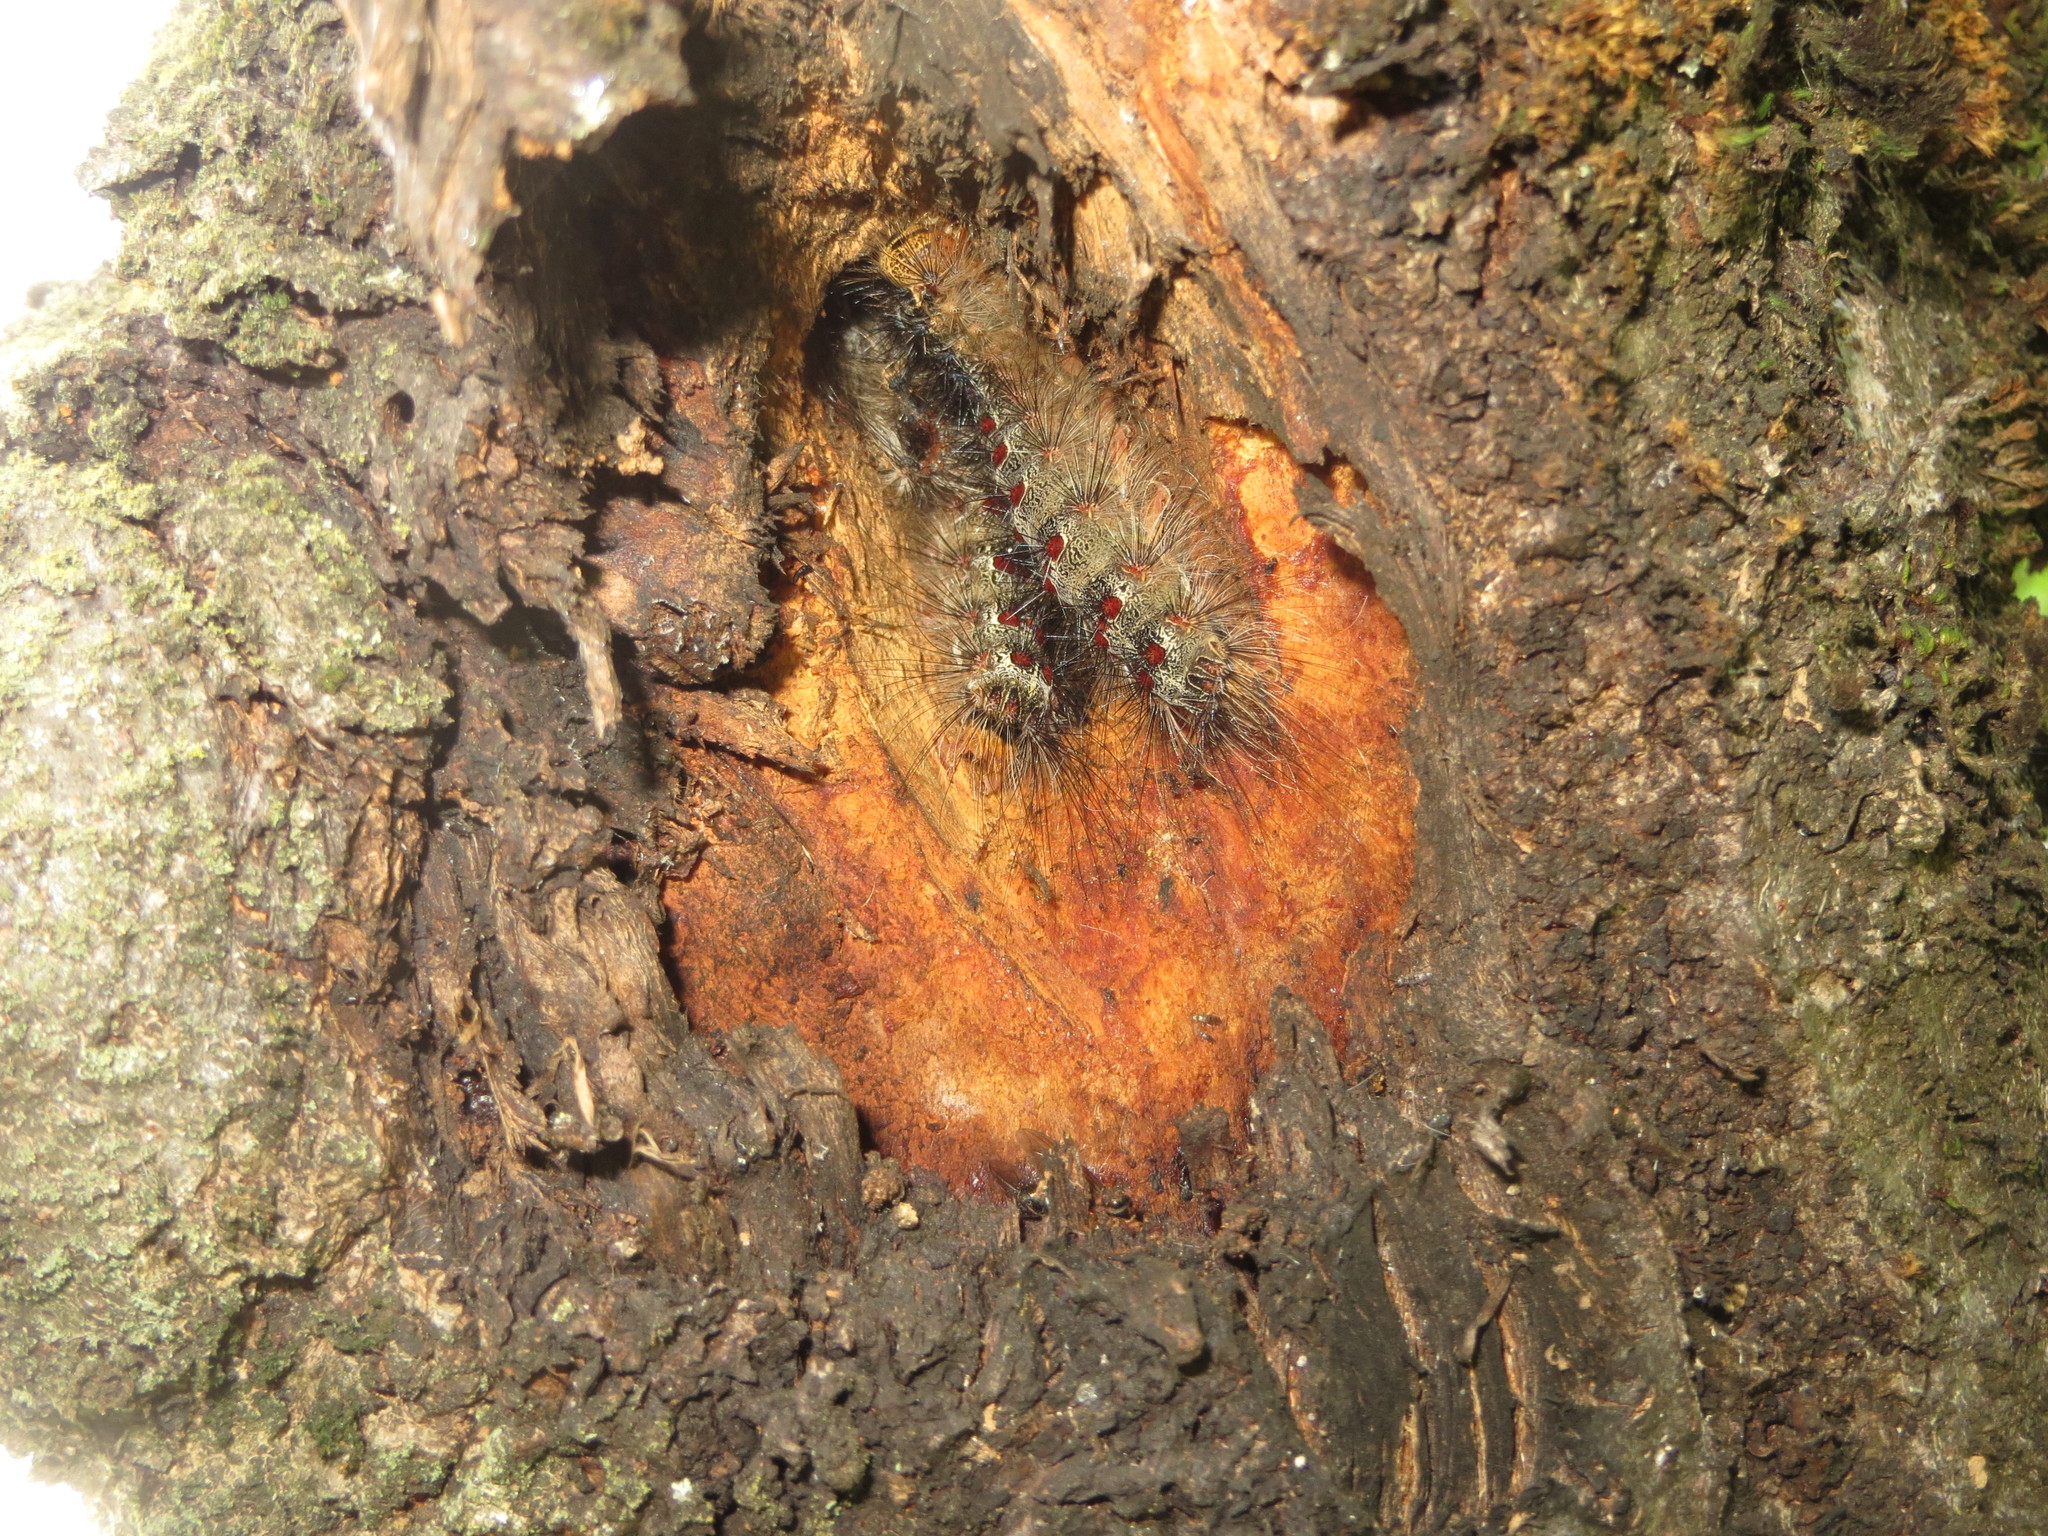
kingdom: Animalia
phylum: Arthropoda
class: Insecta
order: Lepidoptera
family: Erebidae
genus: Lymantria
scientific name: Lymantria dispar
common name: Gypsy moth
